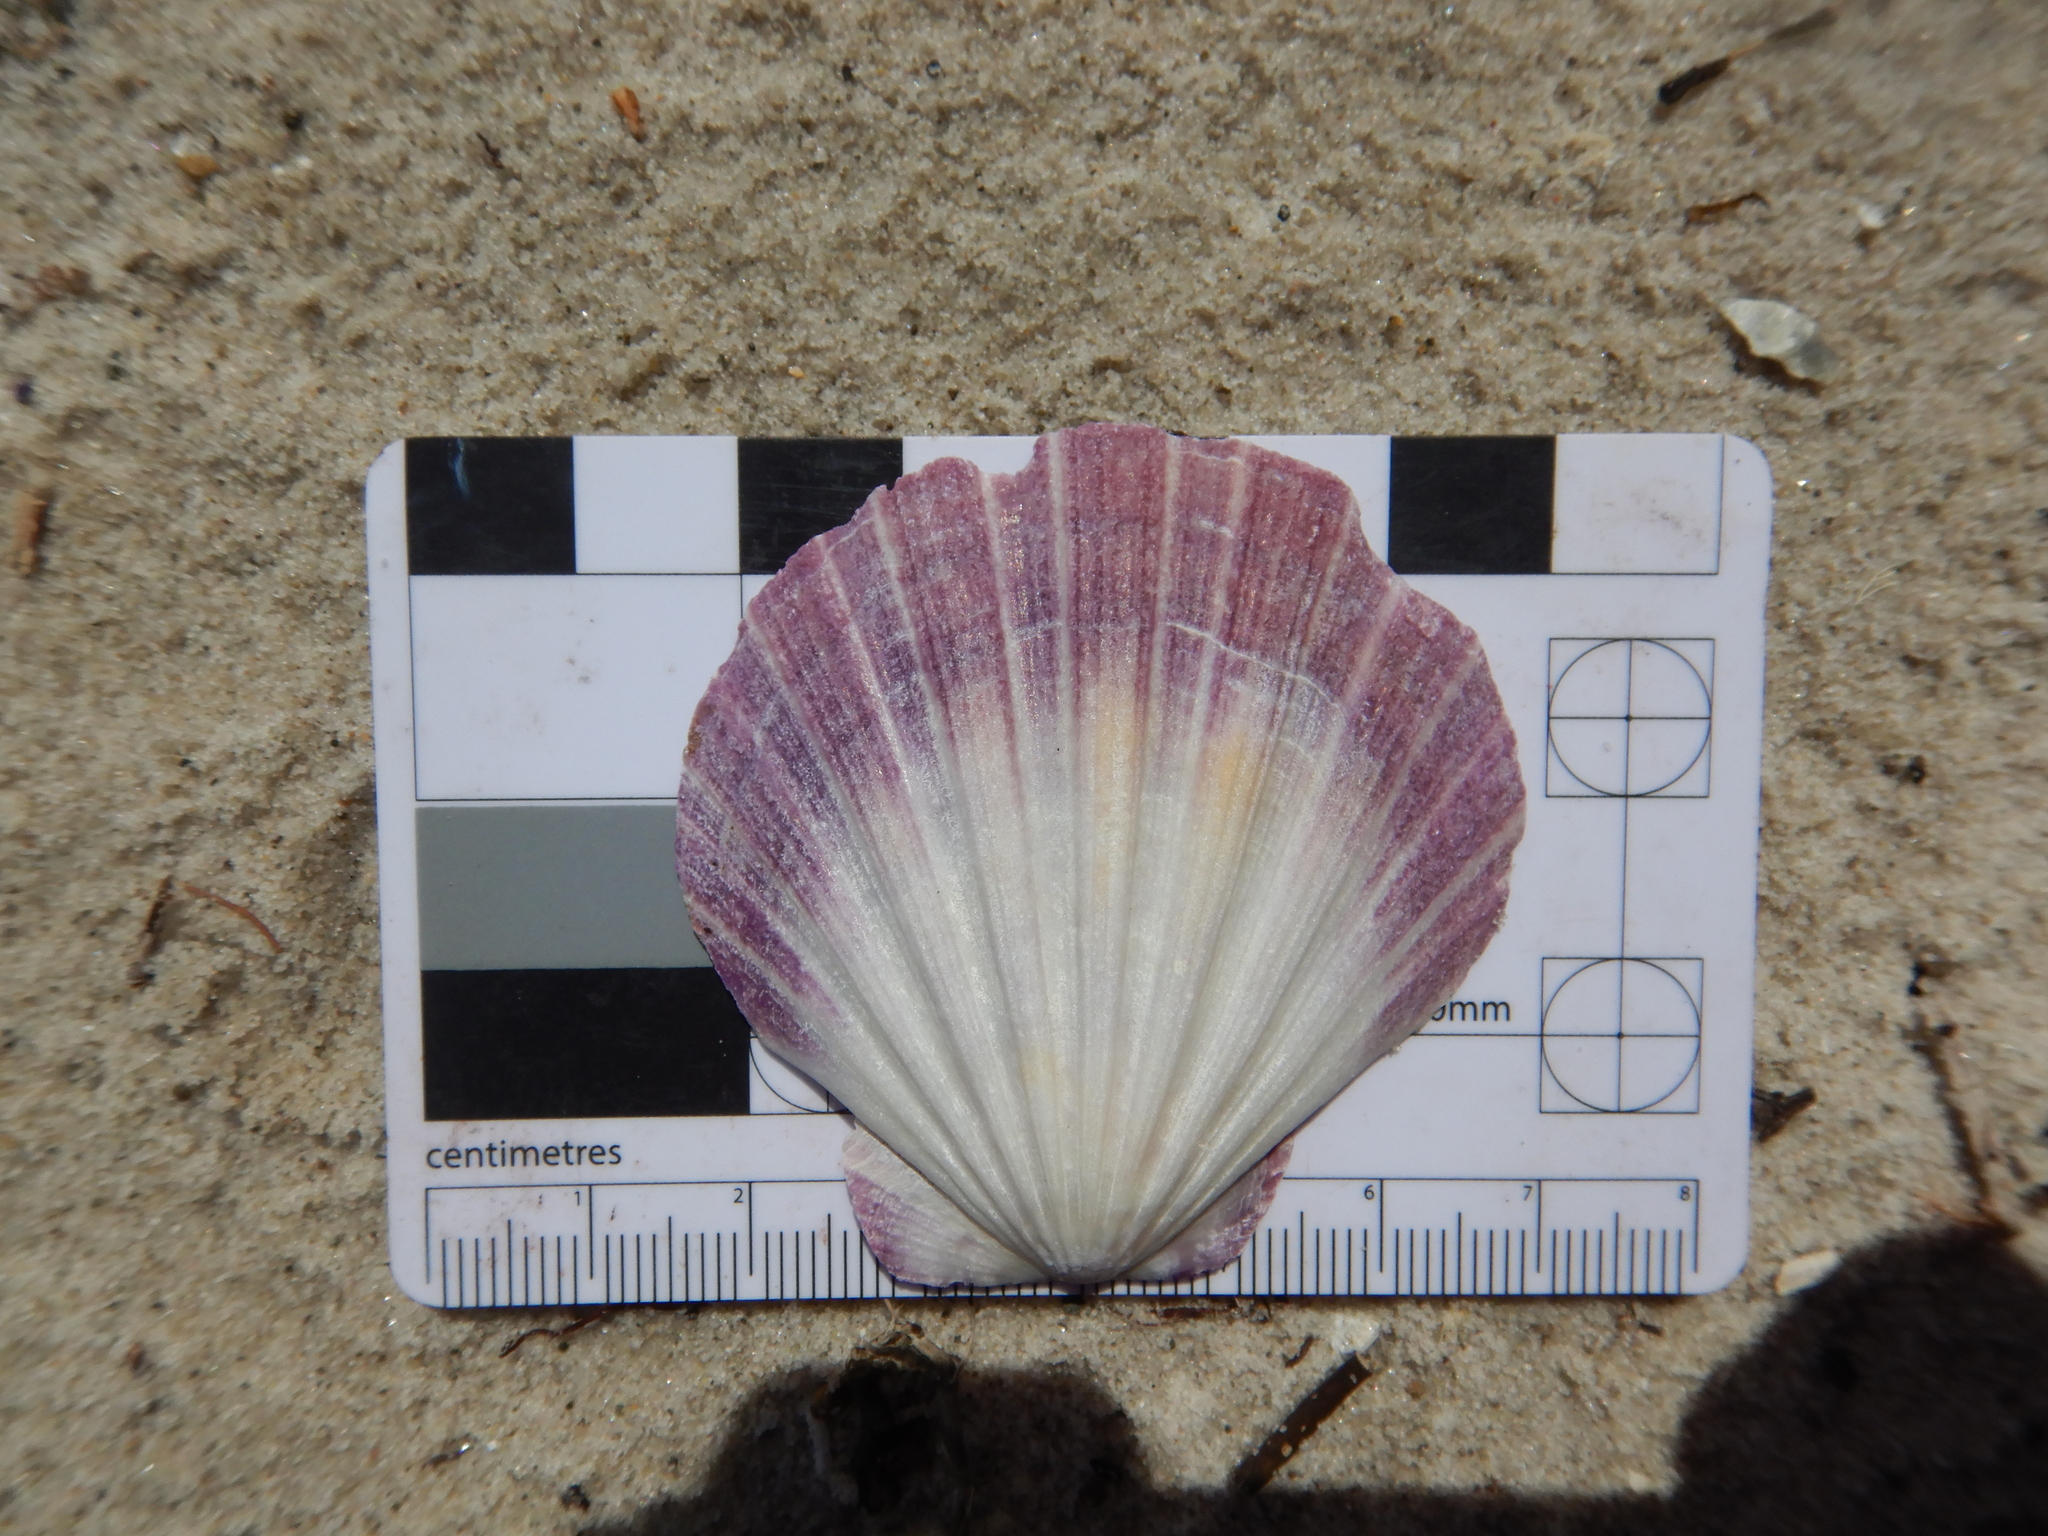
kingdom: Animalia
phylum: Mollusca
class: Bivalvia
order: Pectinida
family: Pectinidae
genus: Equichlamys
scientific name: Equichlamys bifrons
